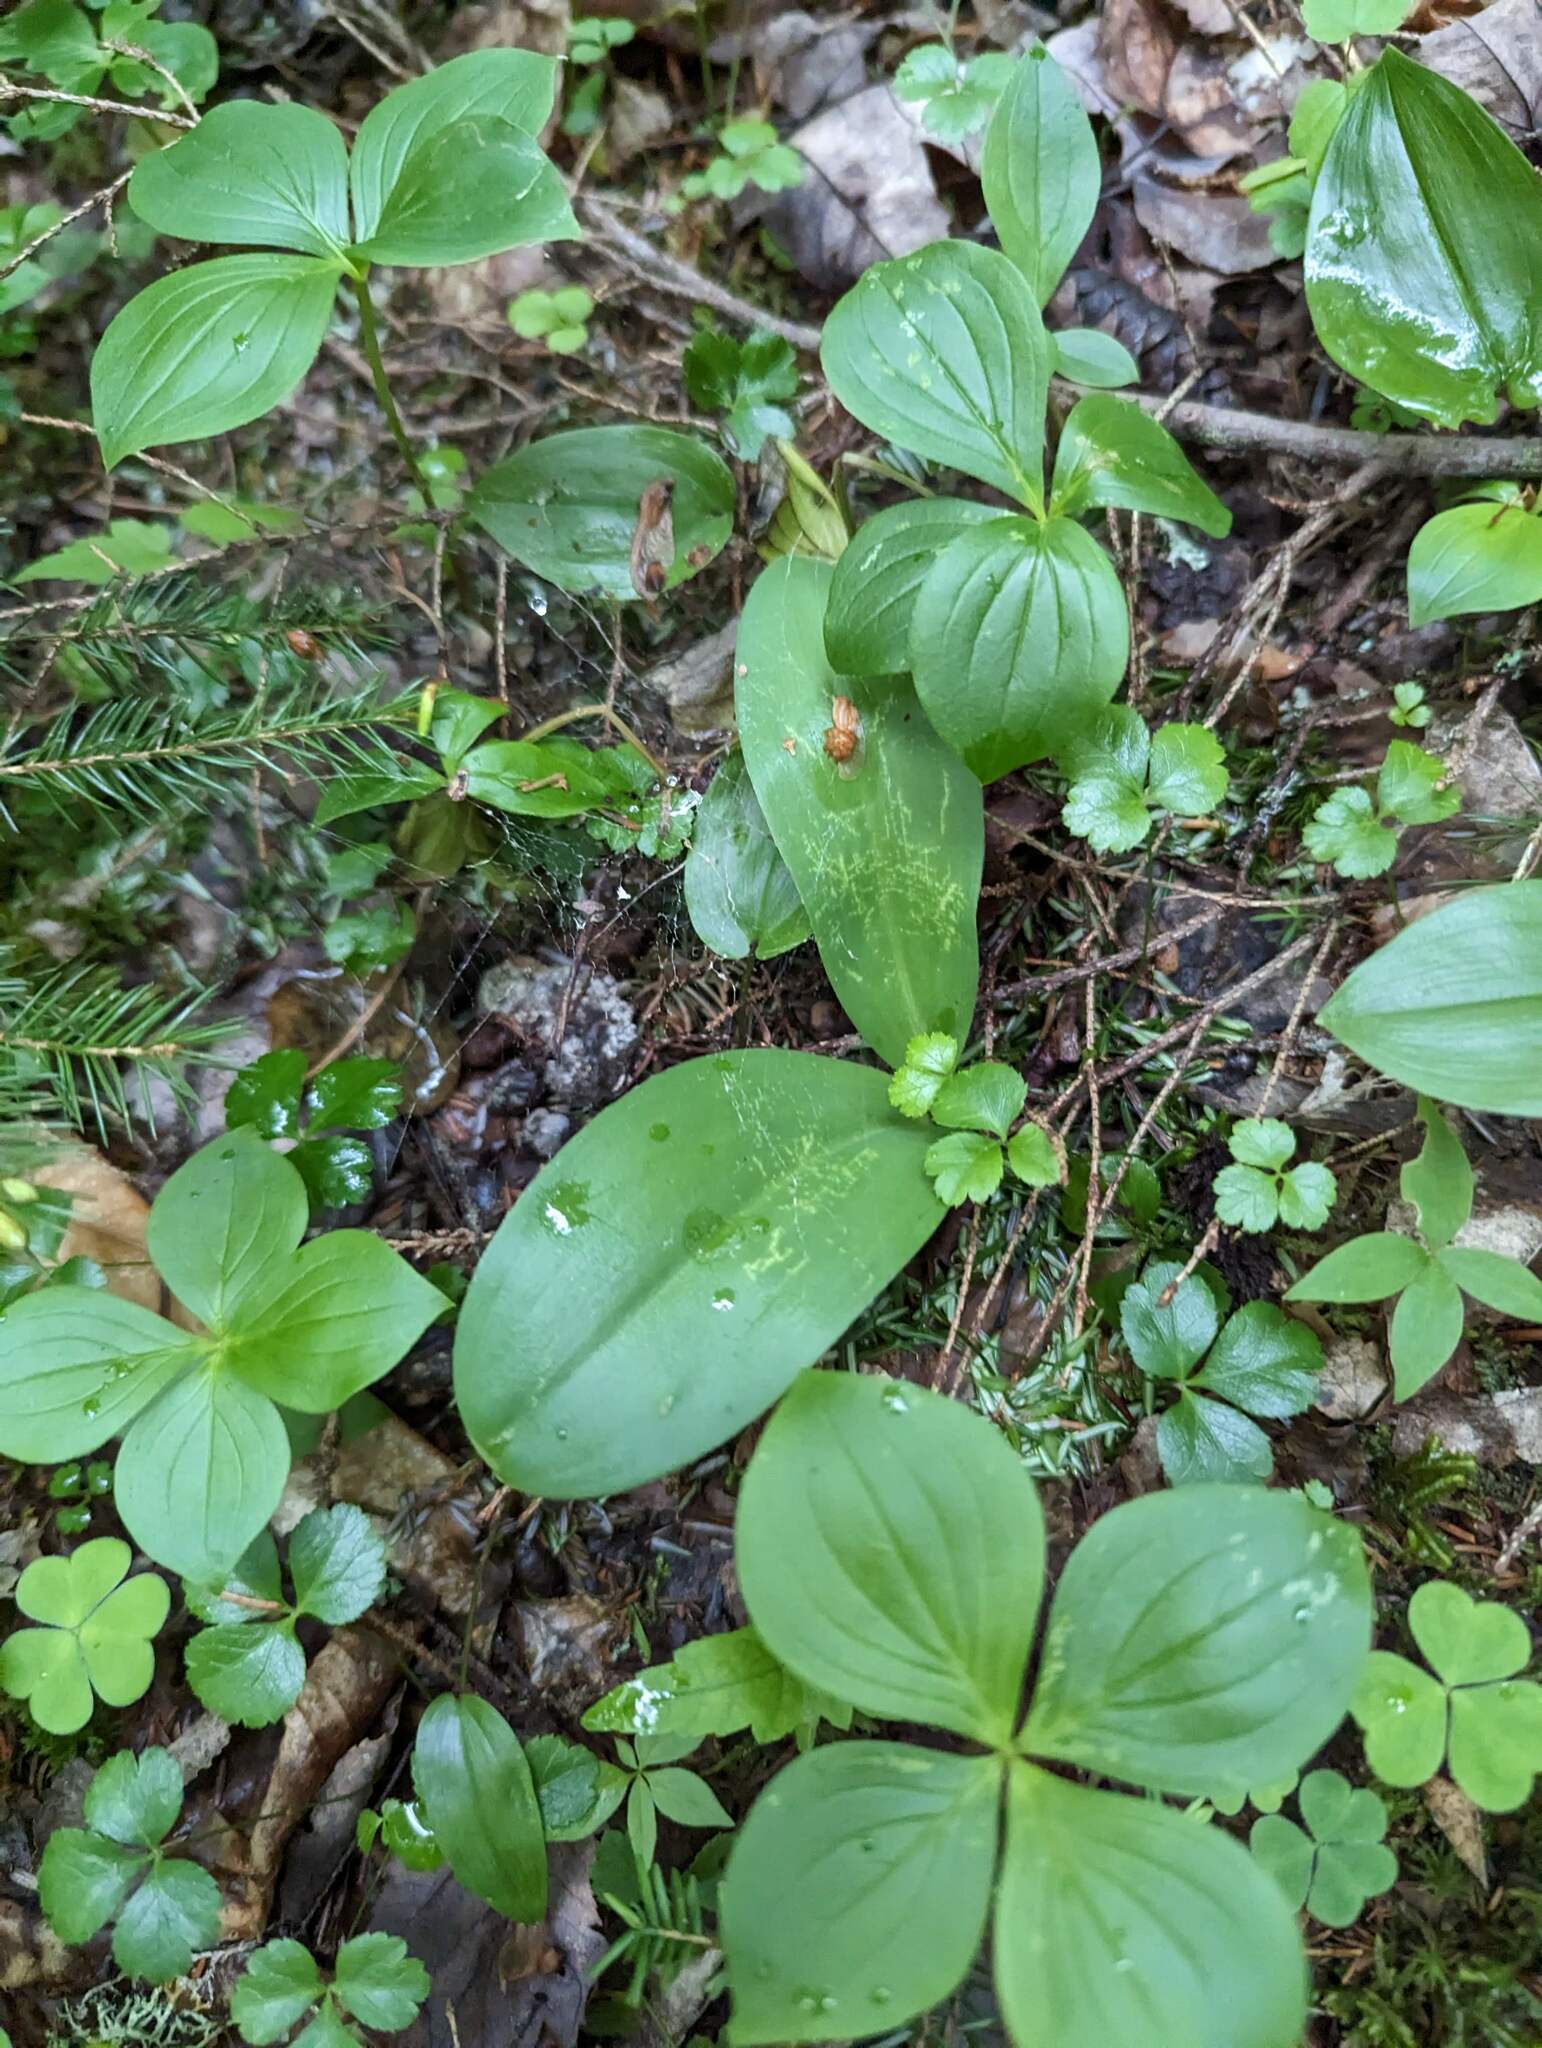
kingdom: Plantae
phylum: Tracheophyta
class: Liliopsida
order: Liliales
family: Liliaceae
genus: Clintonia
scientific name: Clintonia borealis
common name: Yellow clintonia
